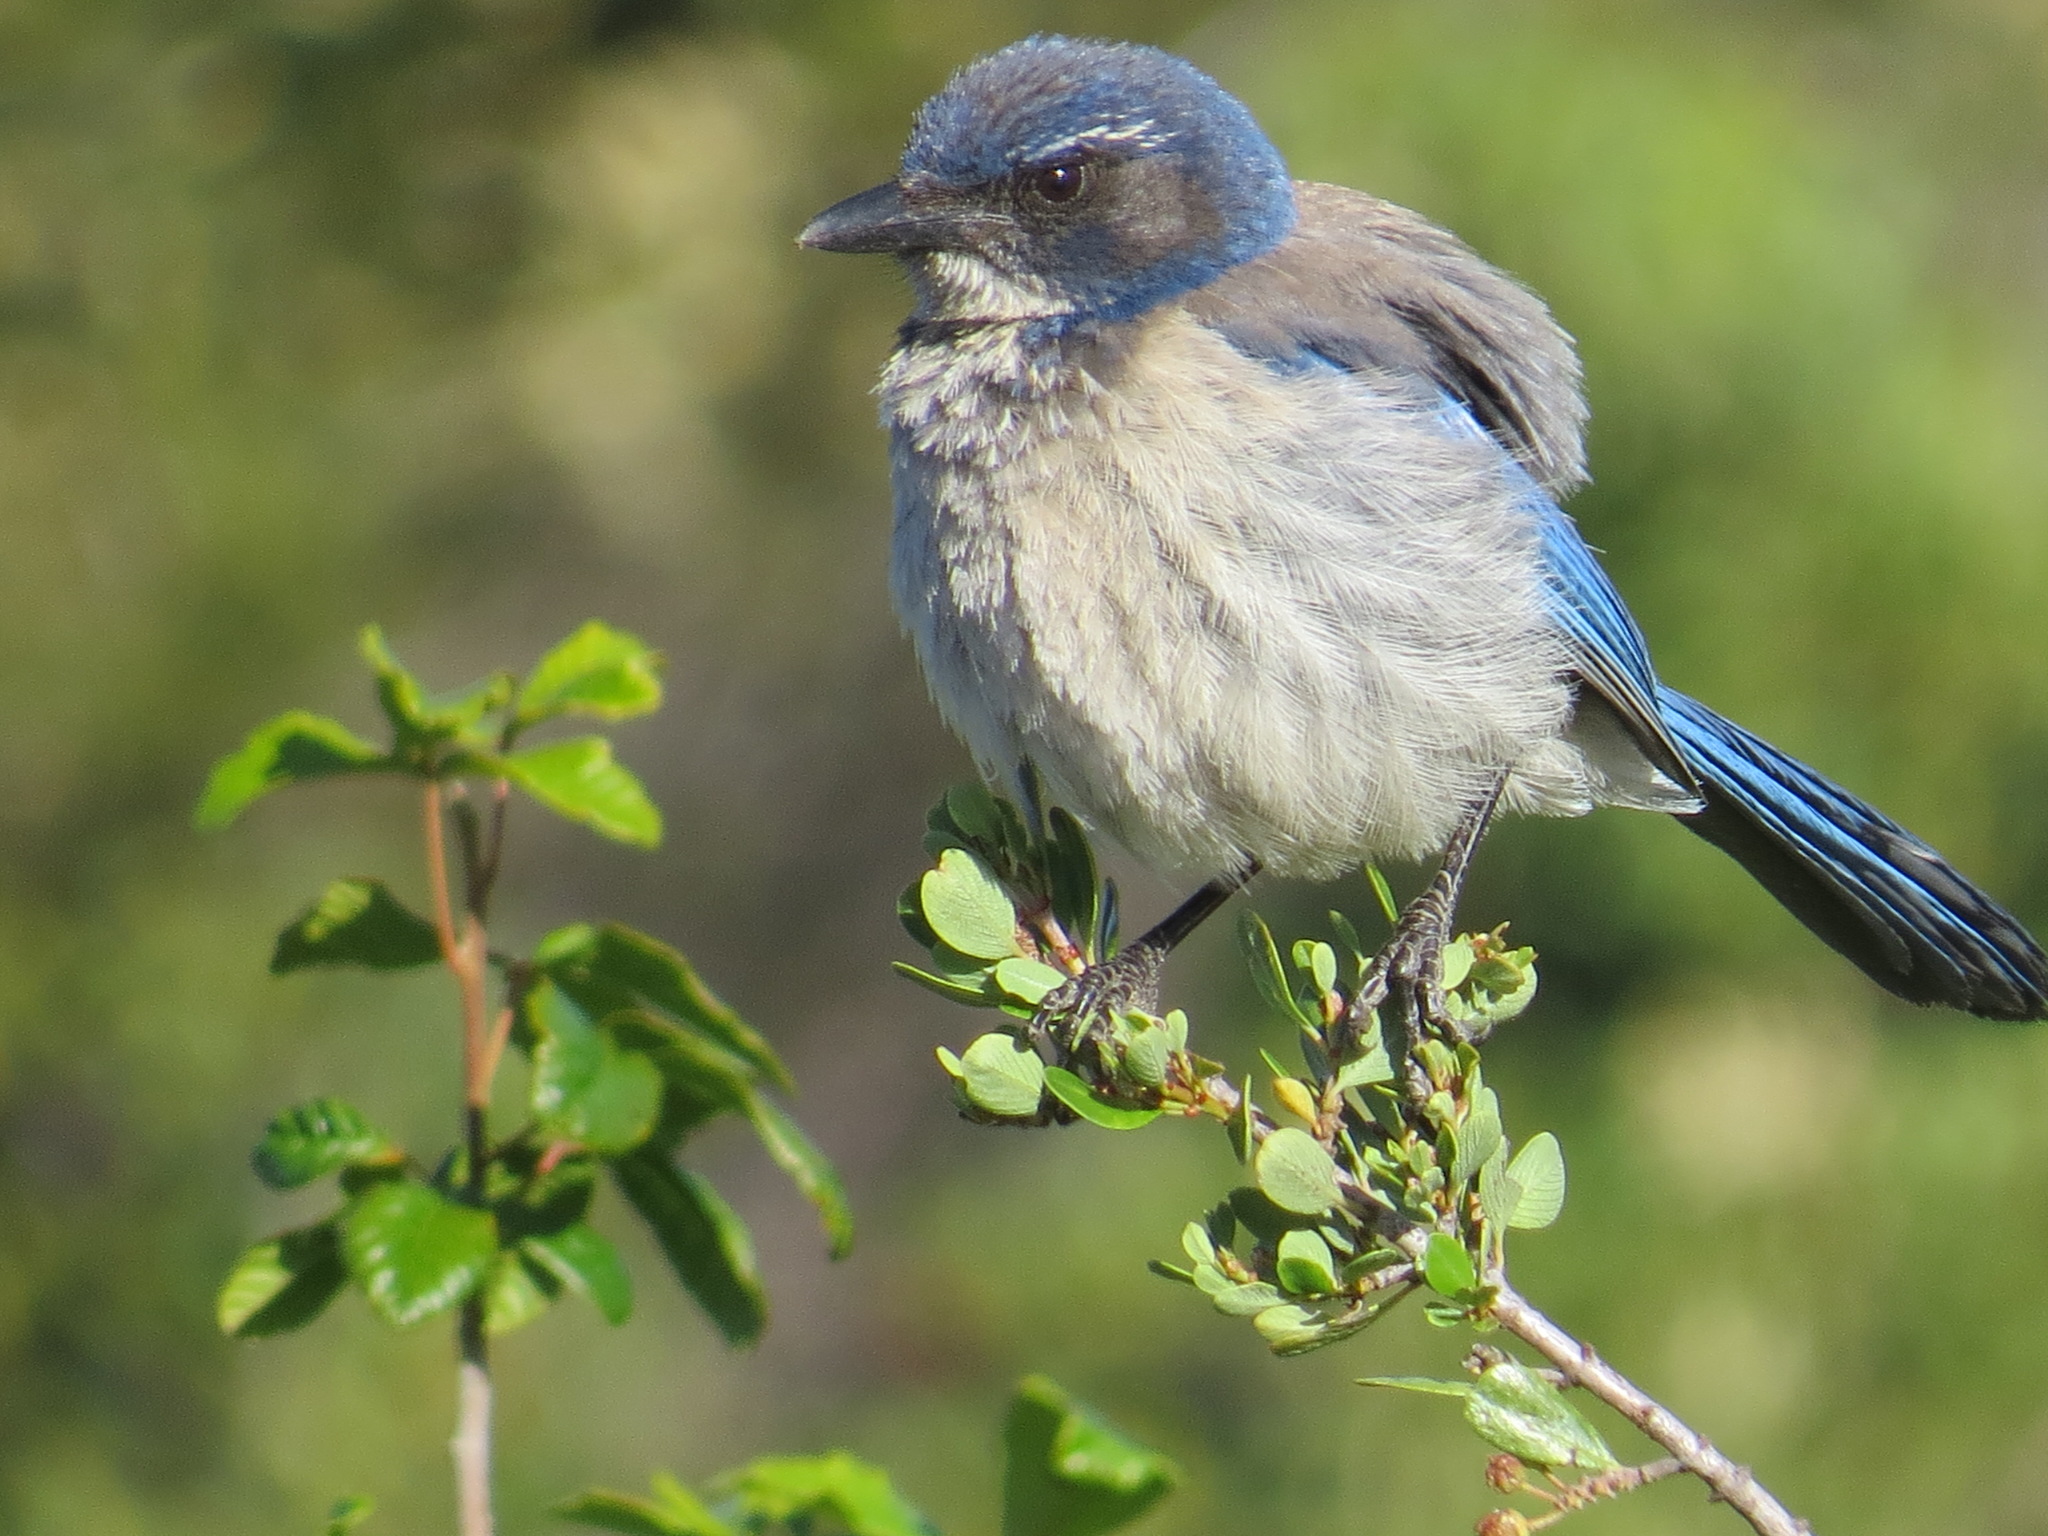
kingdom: Animalia
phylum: Chordata
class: Aves
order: Passeriformes
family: Corvidae
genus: Aphelocoma
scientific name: Aphelocoma californica
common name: California scrub-jay
